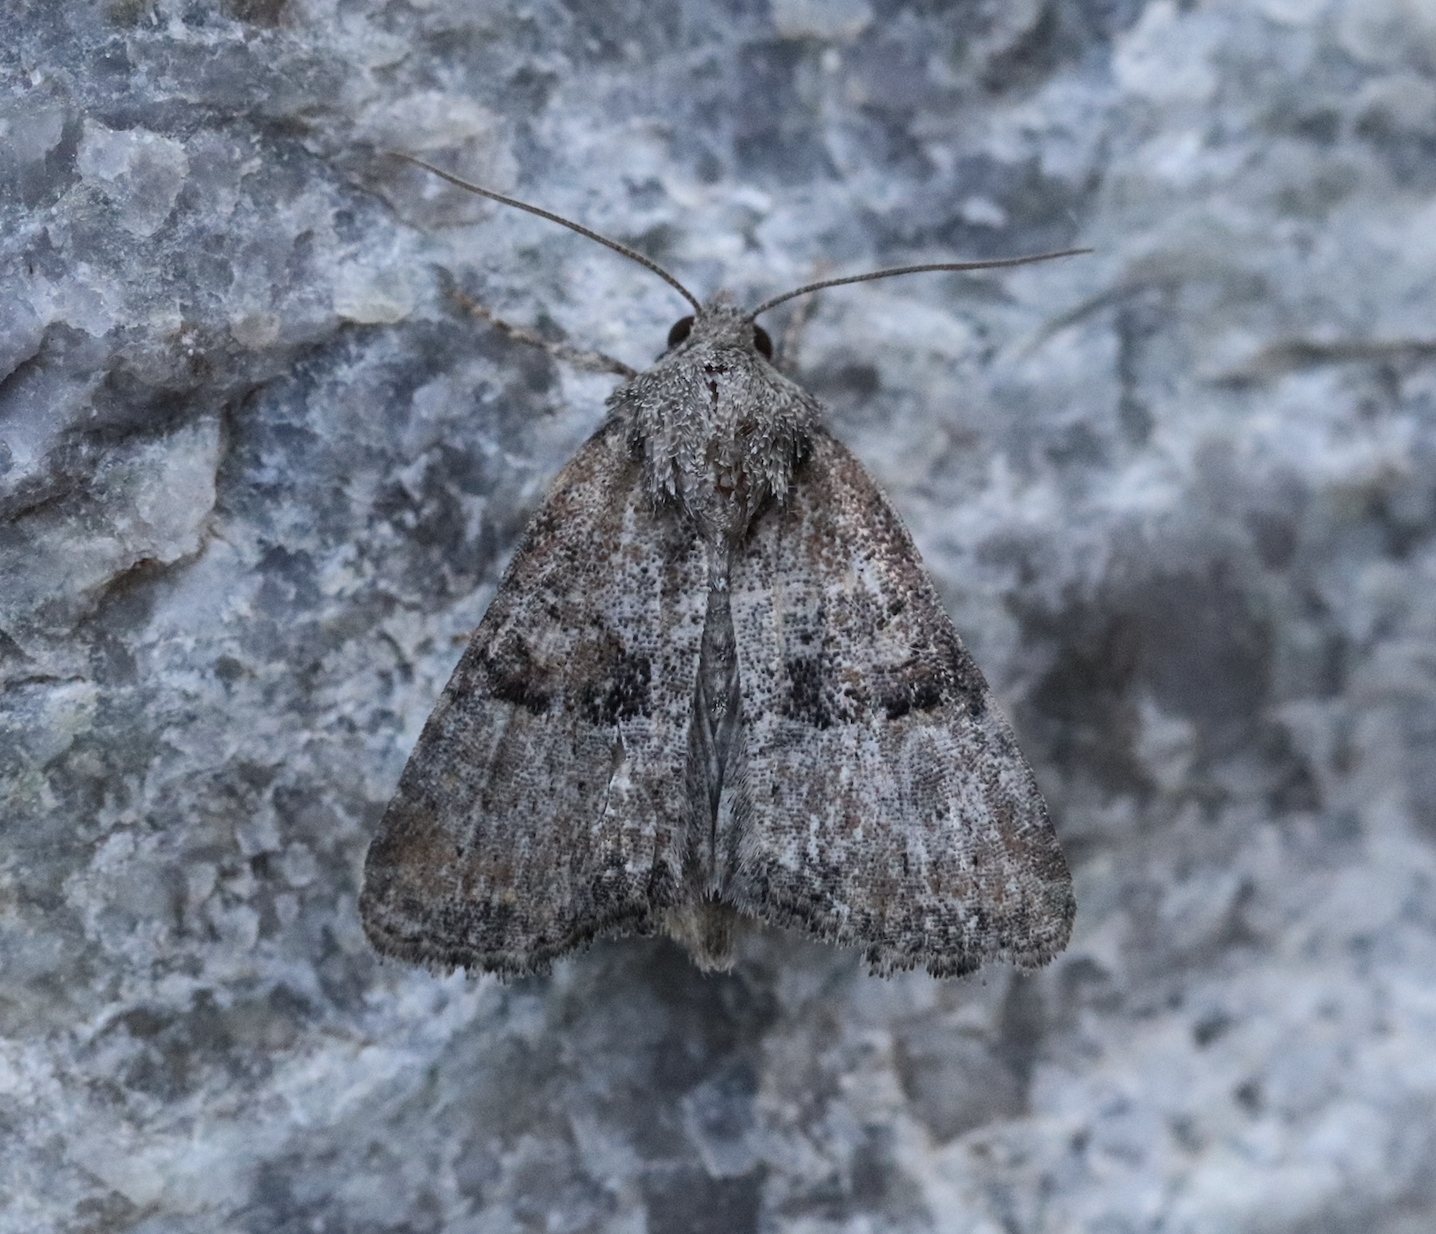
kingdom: Animalia
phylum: Arthropoda
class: Insecta
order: Lepidoptera
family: Noctuidae
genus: Mesoligia
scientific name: Mesoligia furuncula
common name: Cloaked minor
